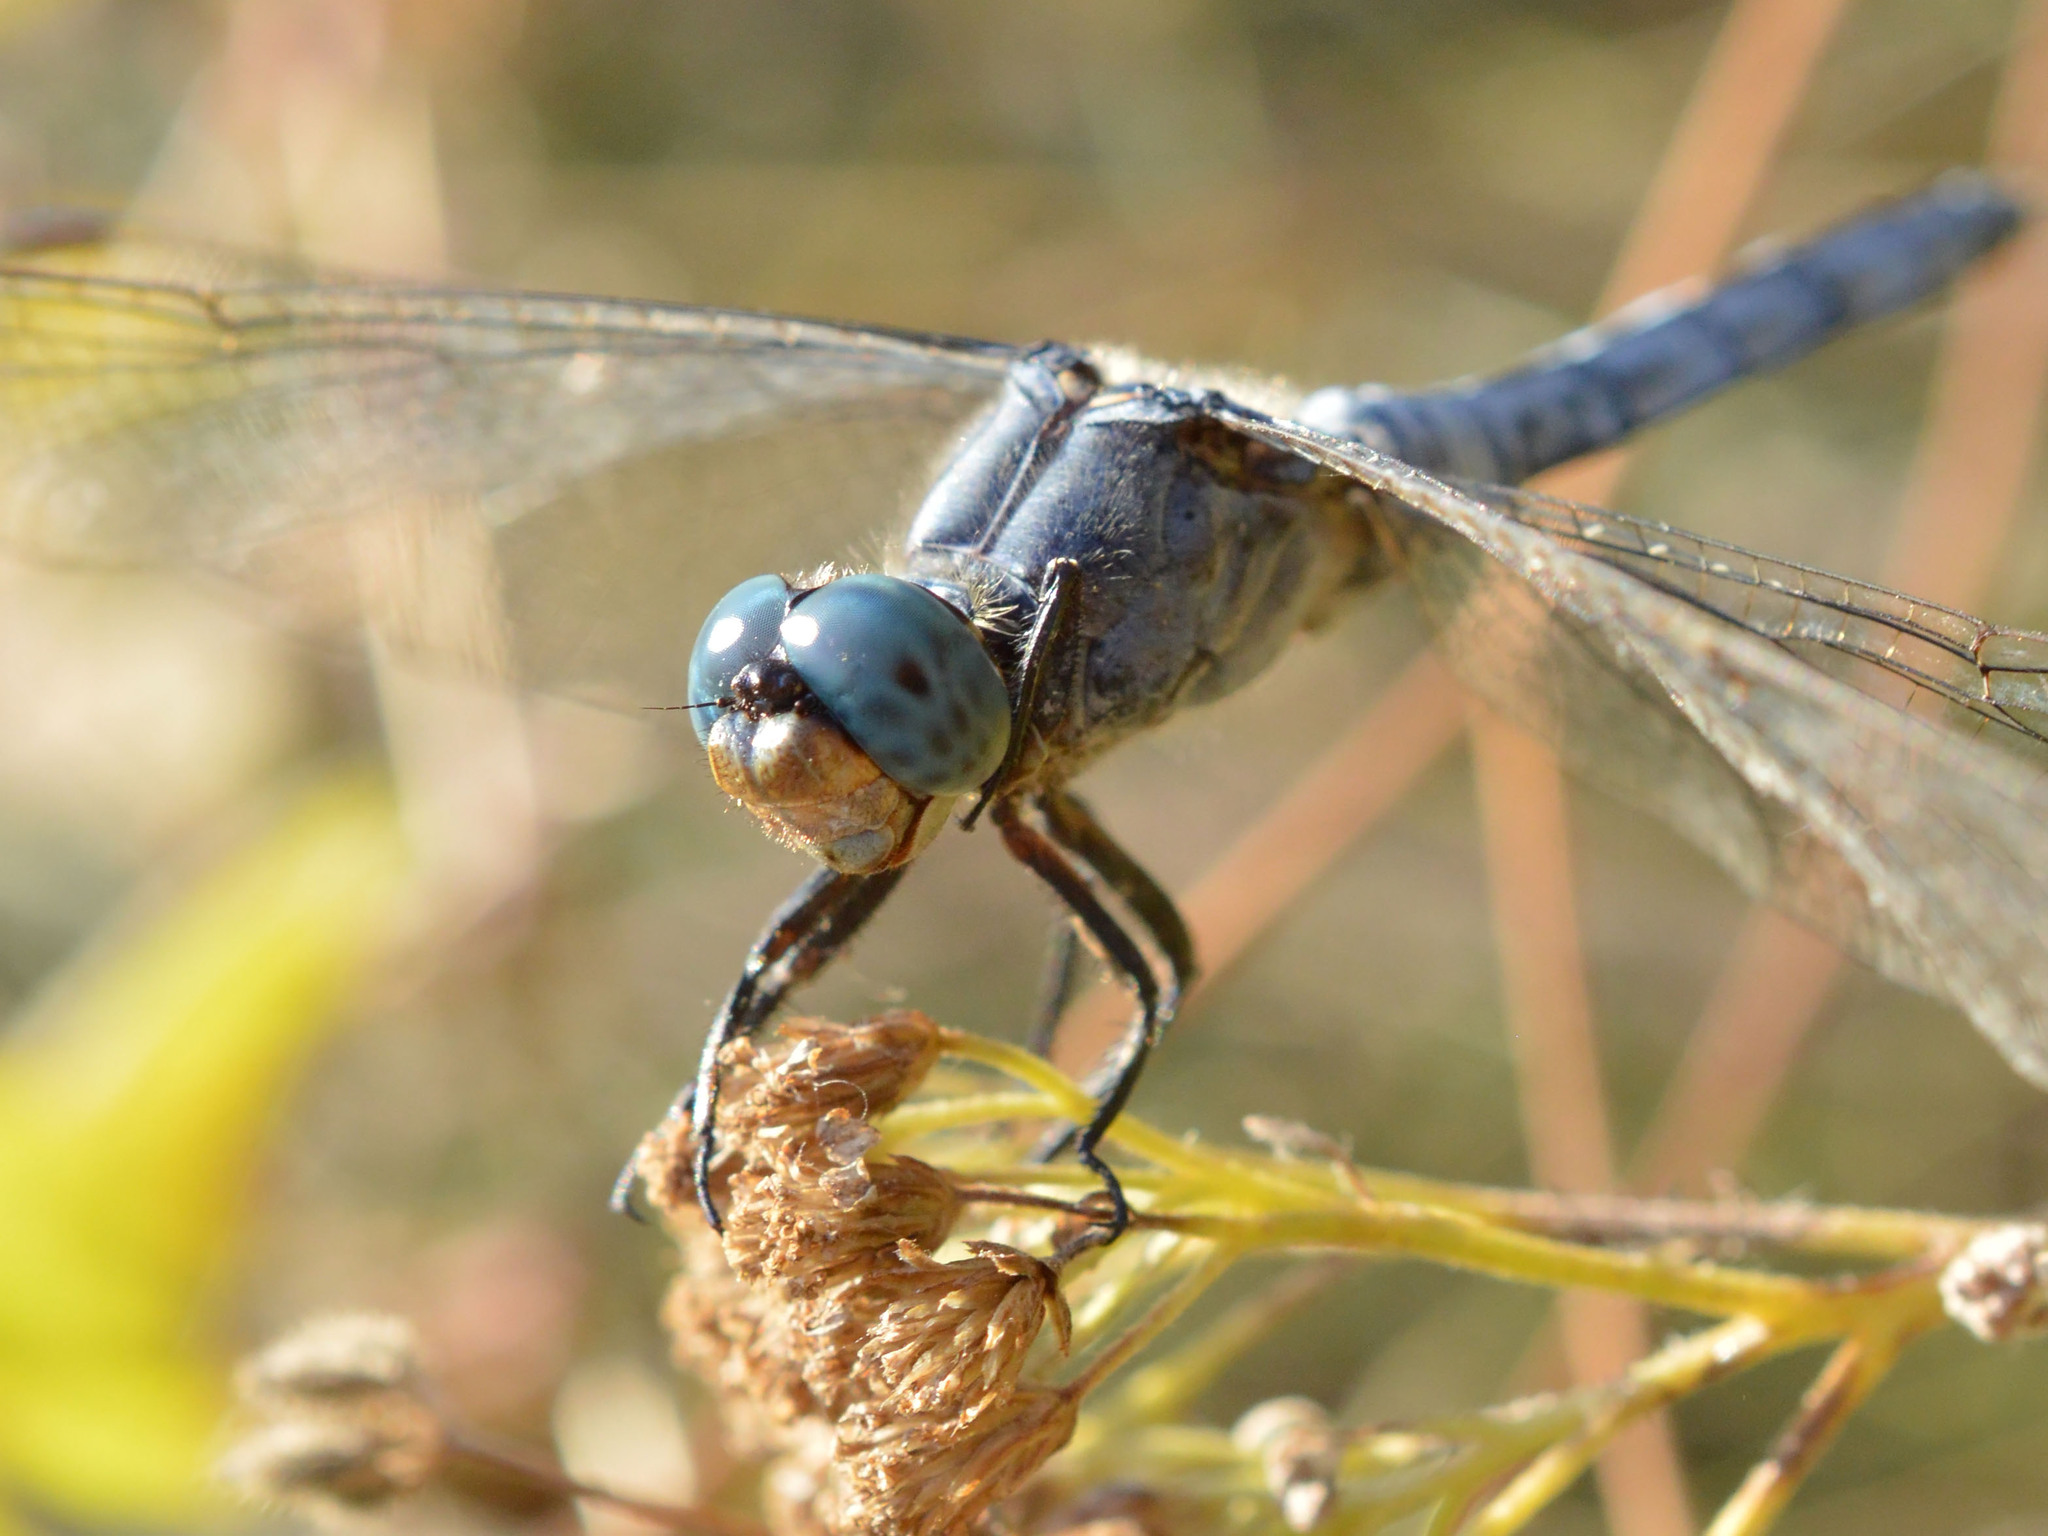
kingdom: Animalia
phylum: Arthropoda
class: Insecta
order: Odonata
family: Libellulidae
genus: Orthetrum
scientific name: Orthetrum coerulescens
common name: Keeled skimmer
